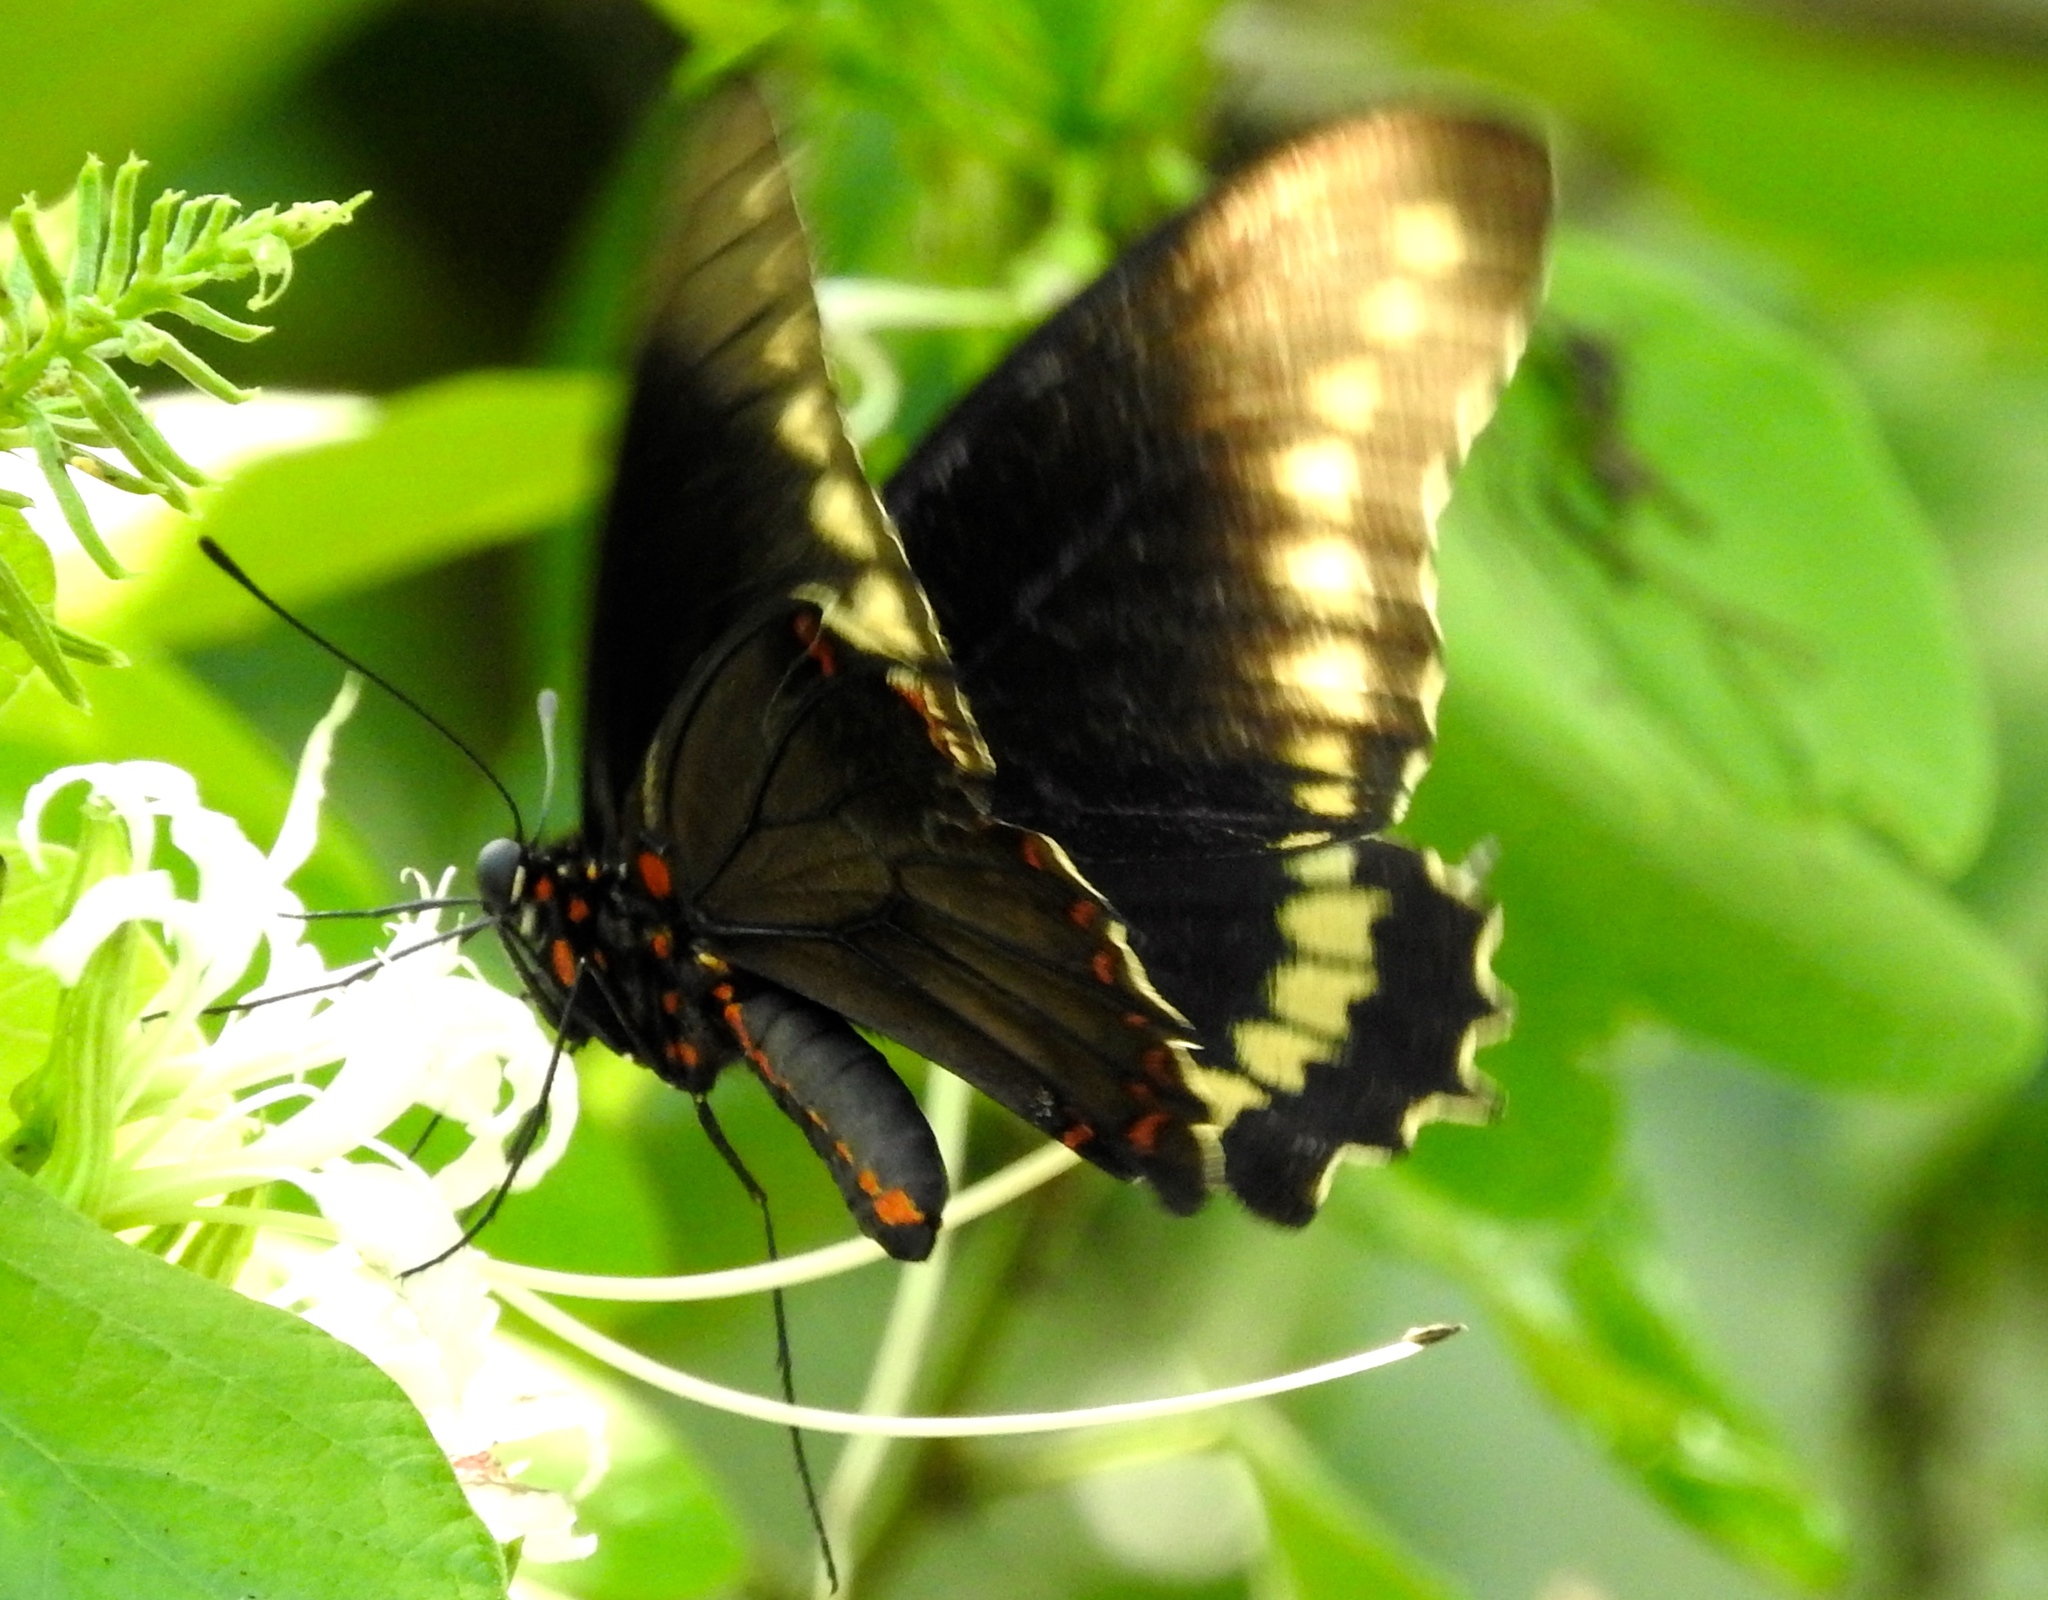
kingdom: Animalia
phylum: Arthropoda
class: Insecta
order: Lepidoptera
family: Papilionidae
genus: Battus
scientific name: Battus polydamas
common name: Polydamas swallowtail
